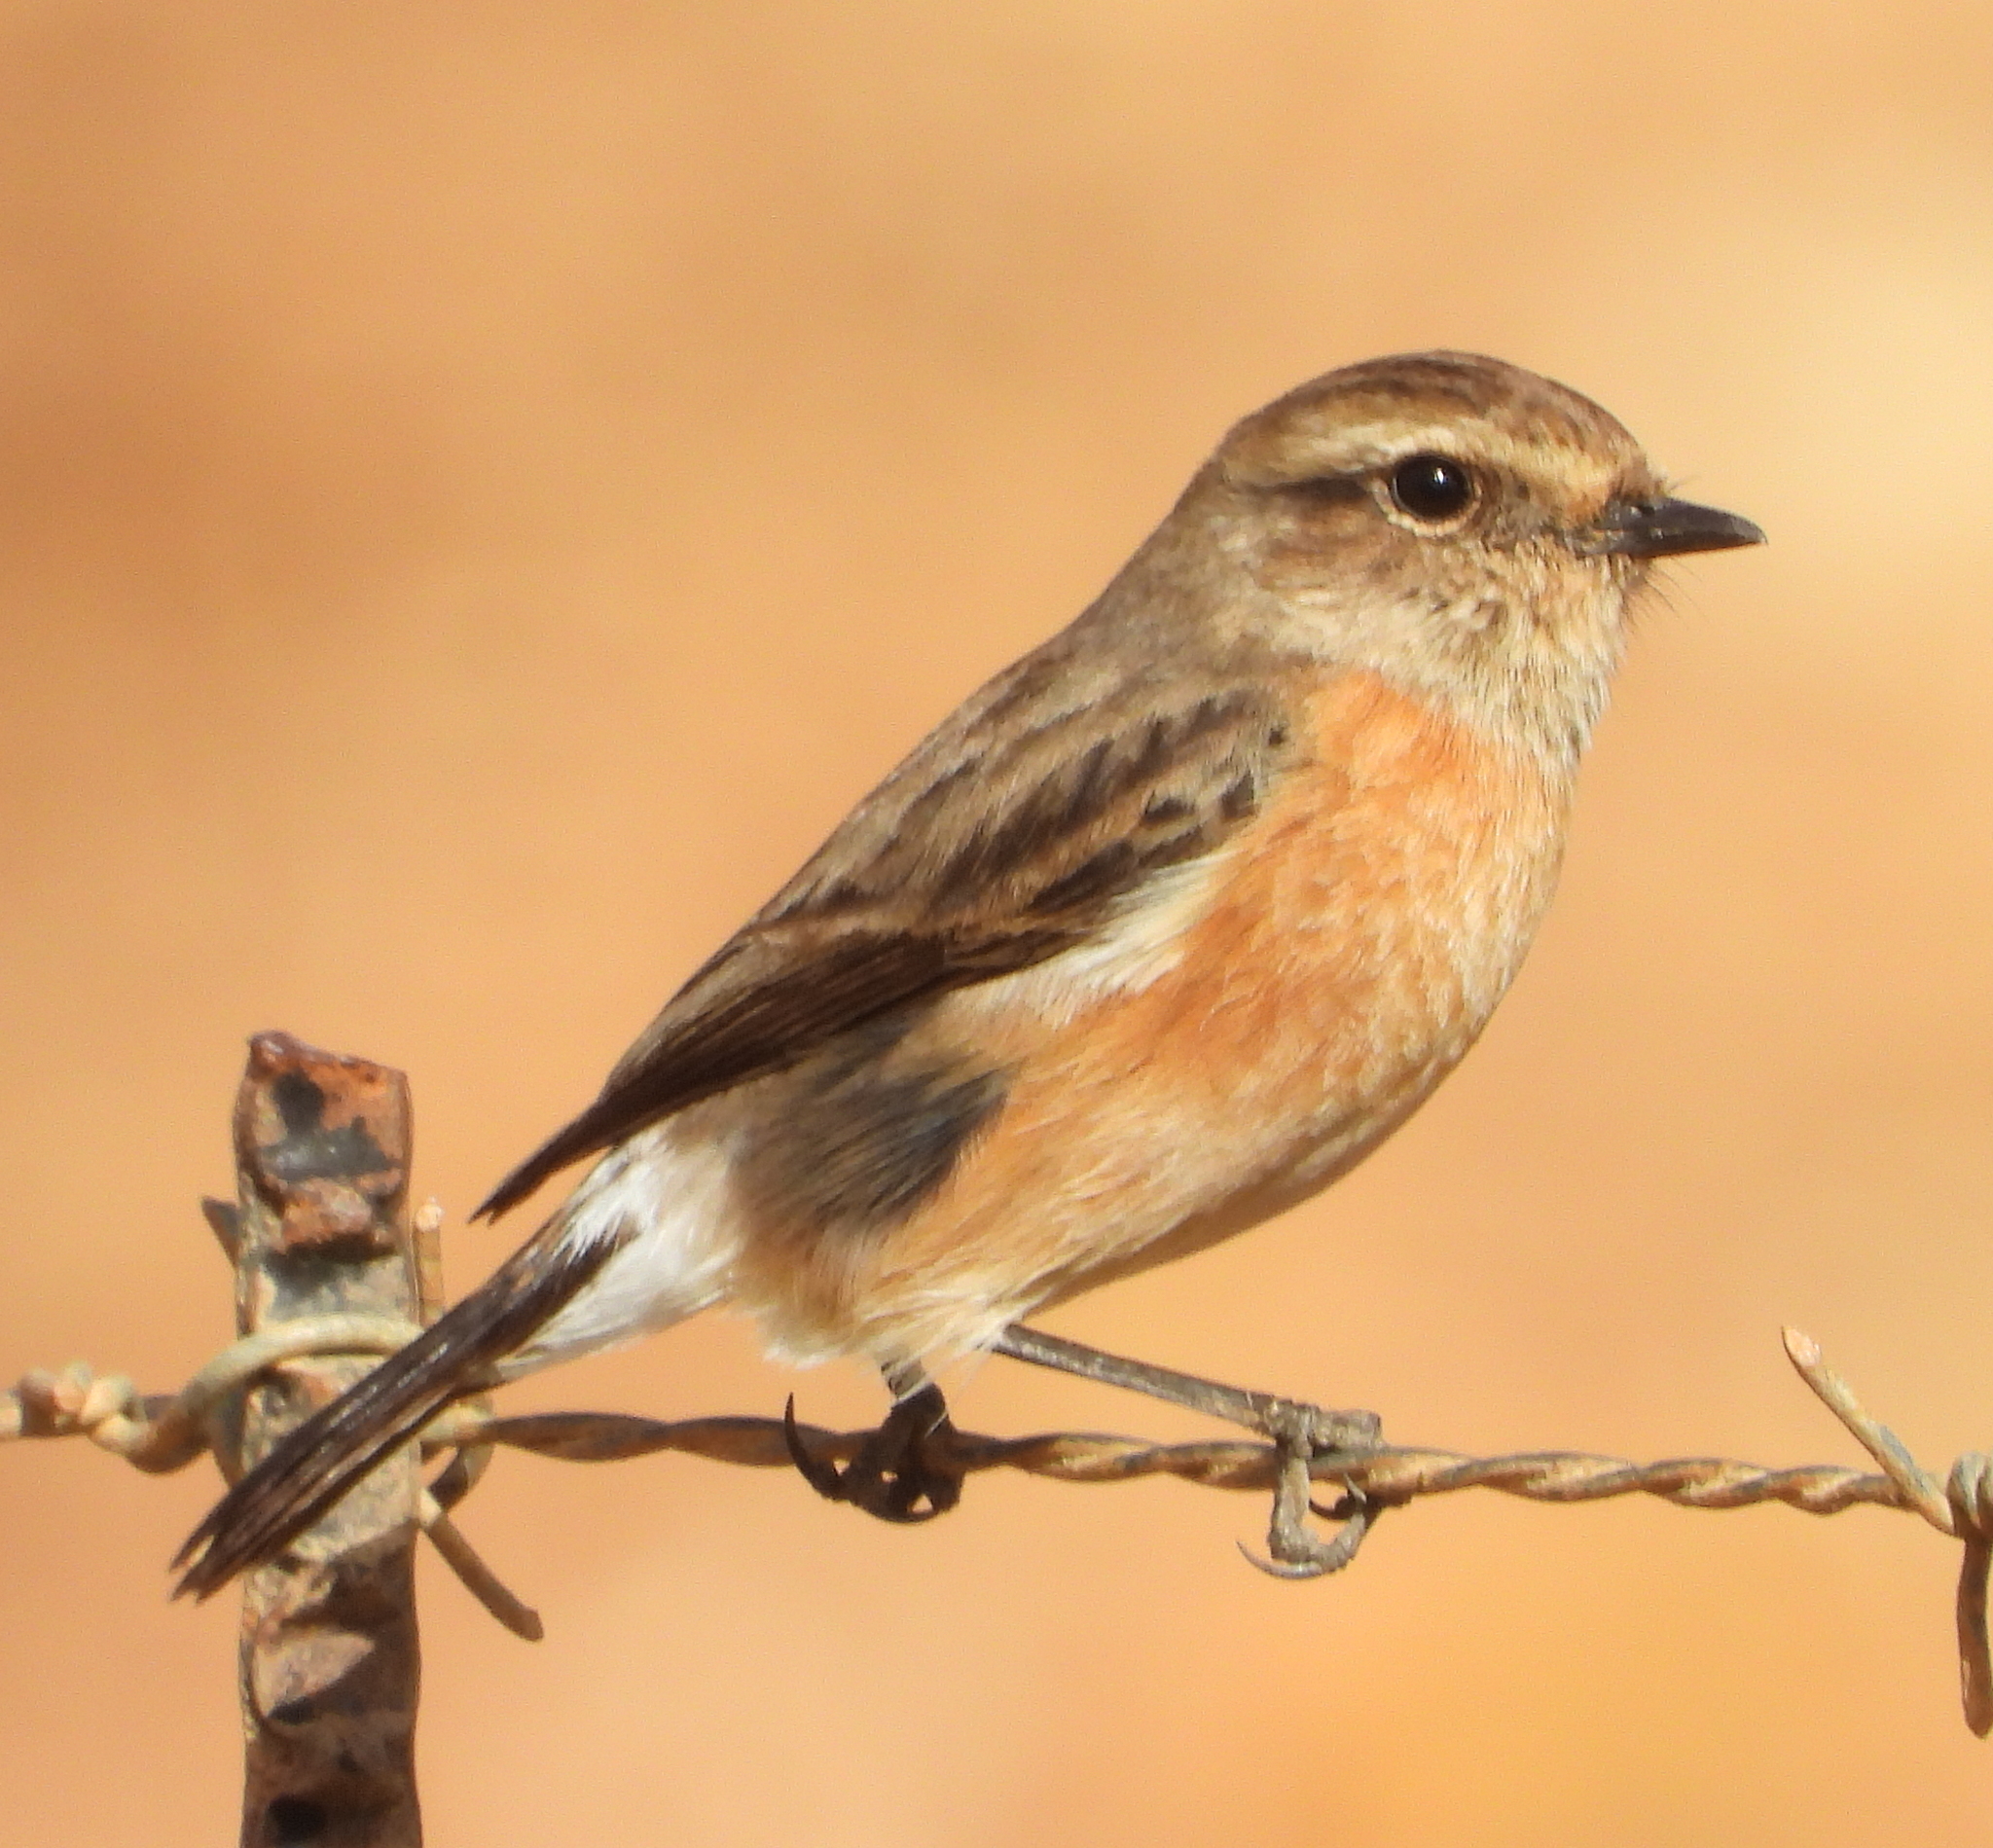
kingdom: Animalia
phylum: Chordata
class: Aves
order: Passeriformes
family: Muscicapidae
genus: Saxicola
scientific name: Saxicola torquatus
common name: African stonechat
